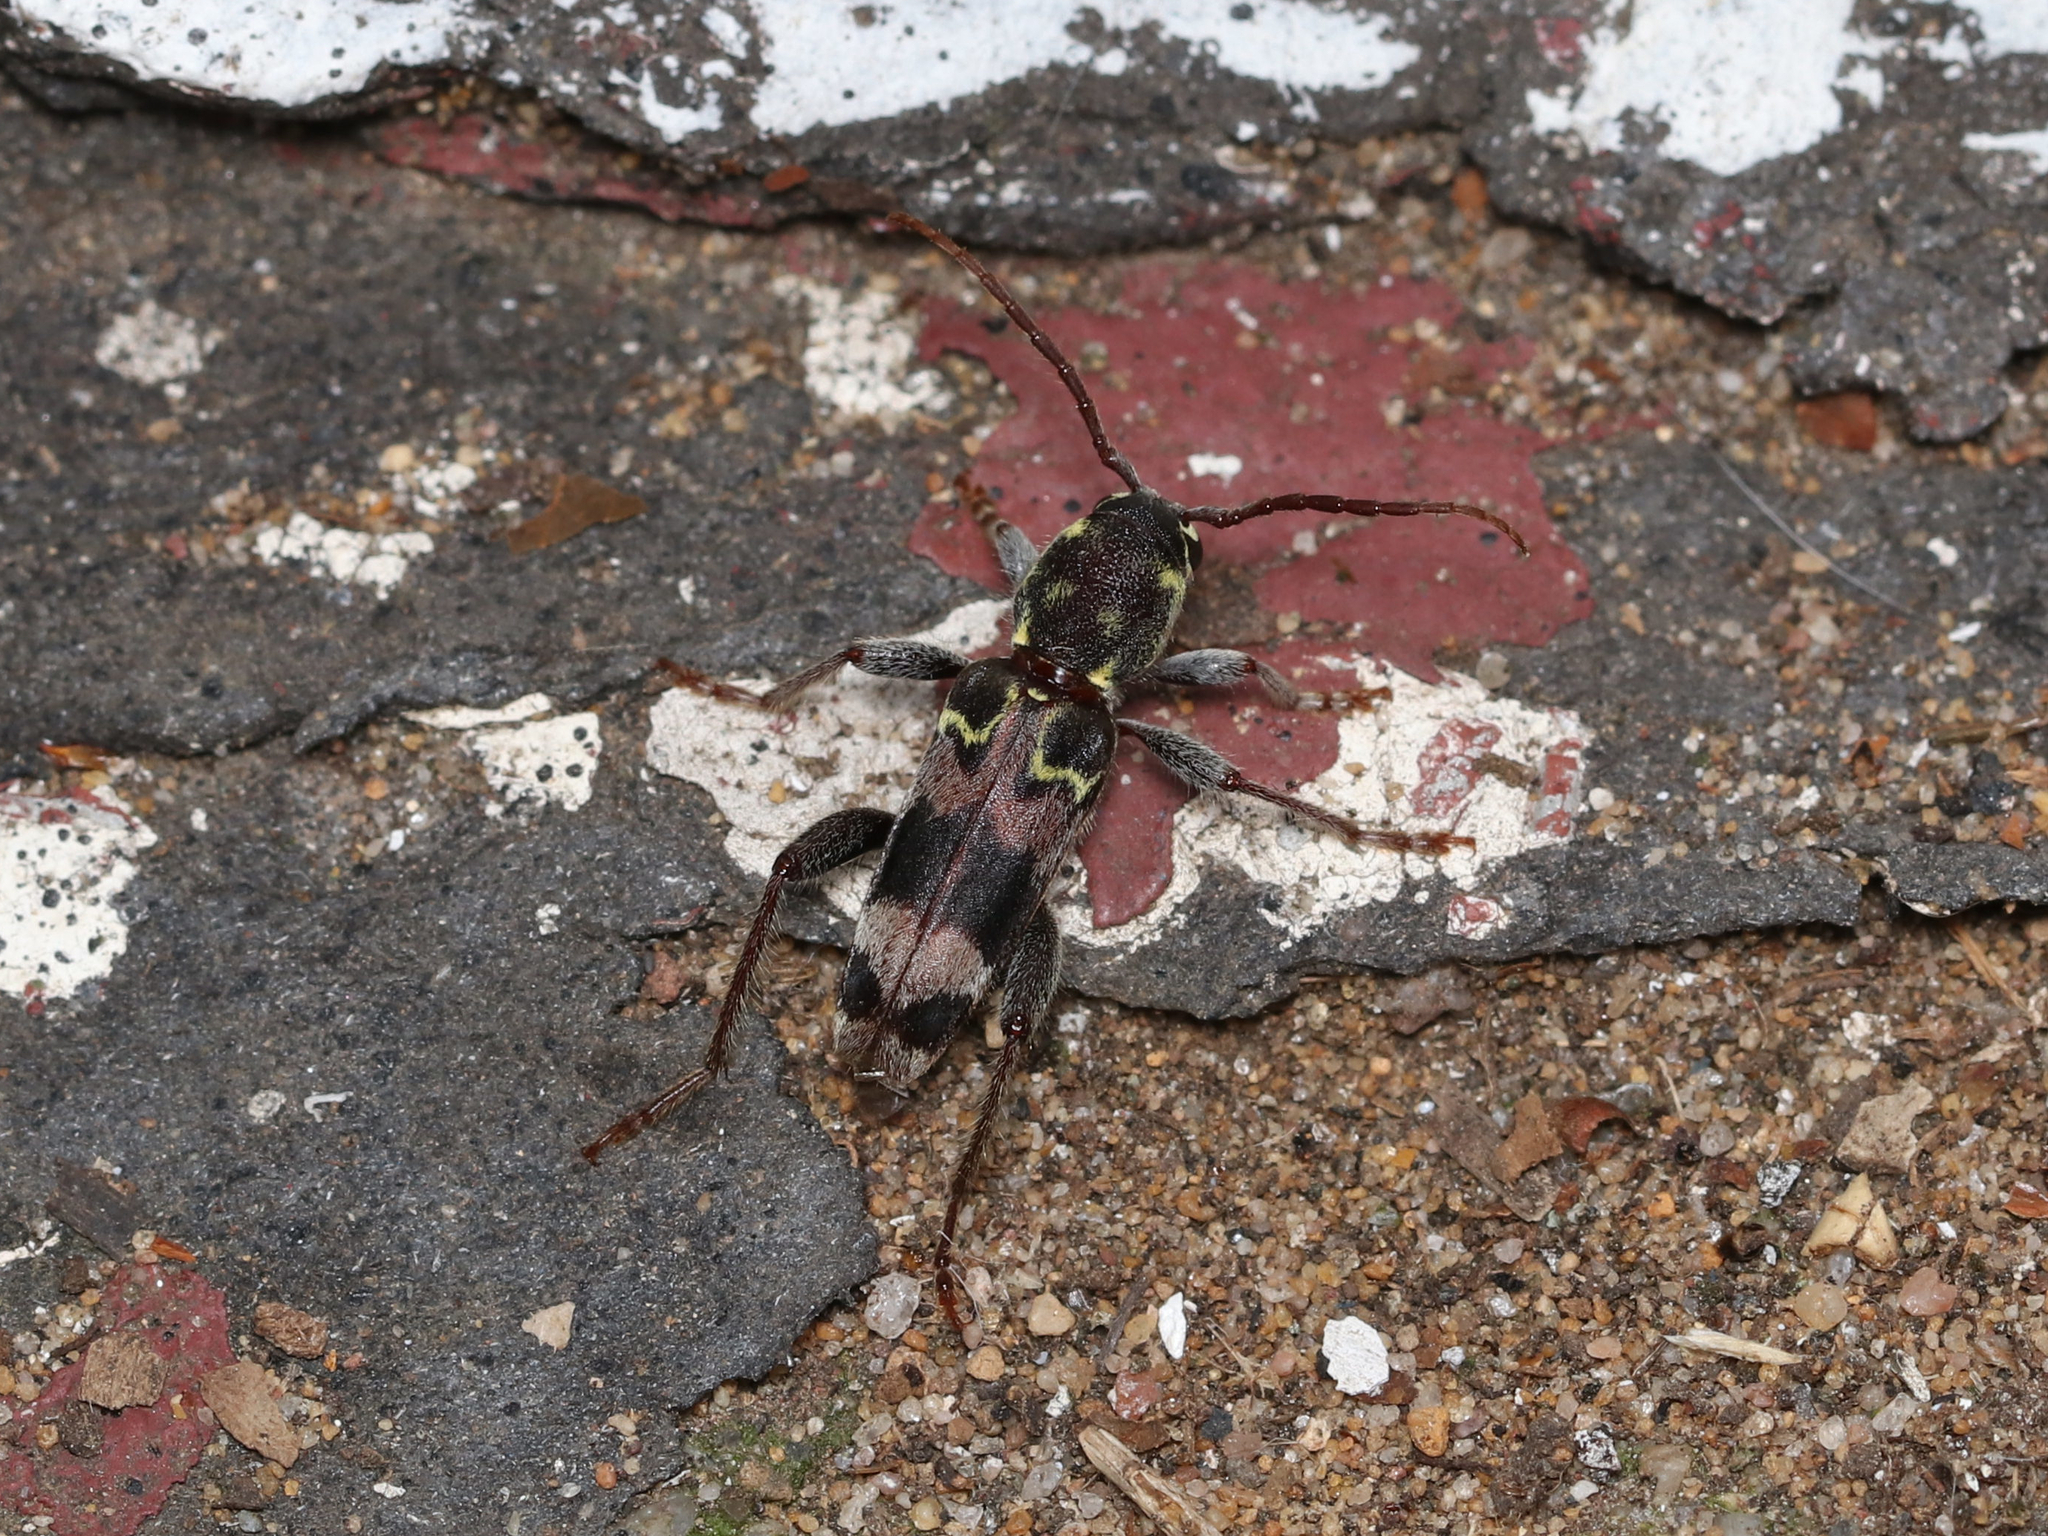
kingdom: Animalia
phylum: Arthropoda
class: Insecta
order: Coleoptera
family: Cerambycidae
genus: Xylotrechus
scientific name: Xylotrechus colonus
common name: Long-horned beetle
